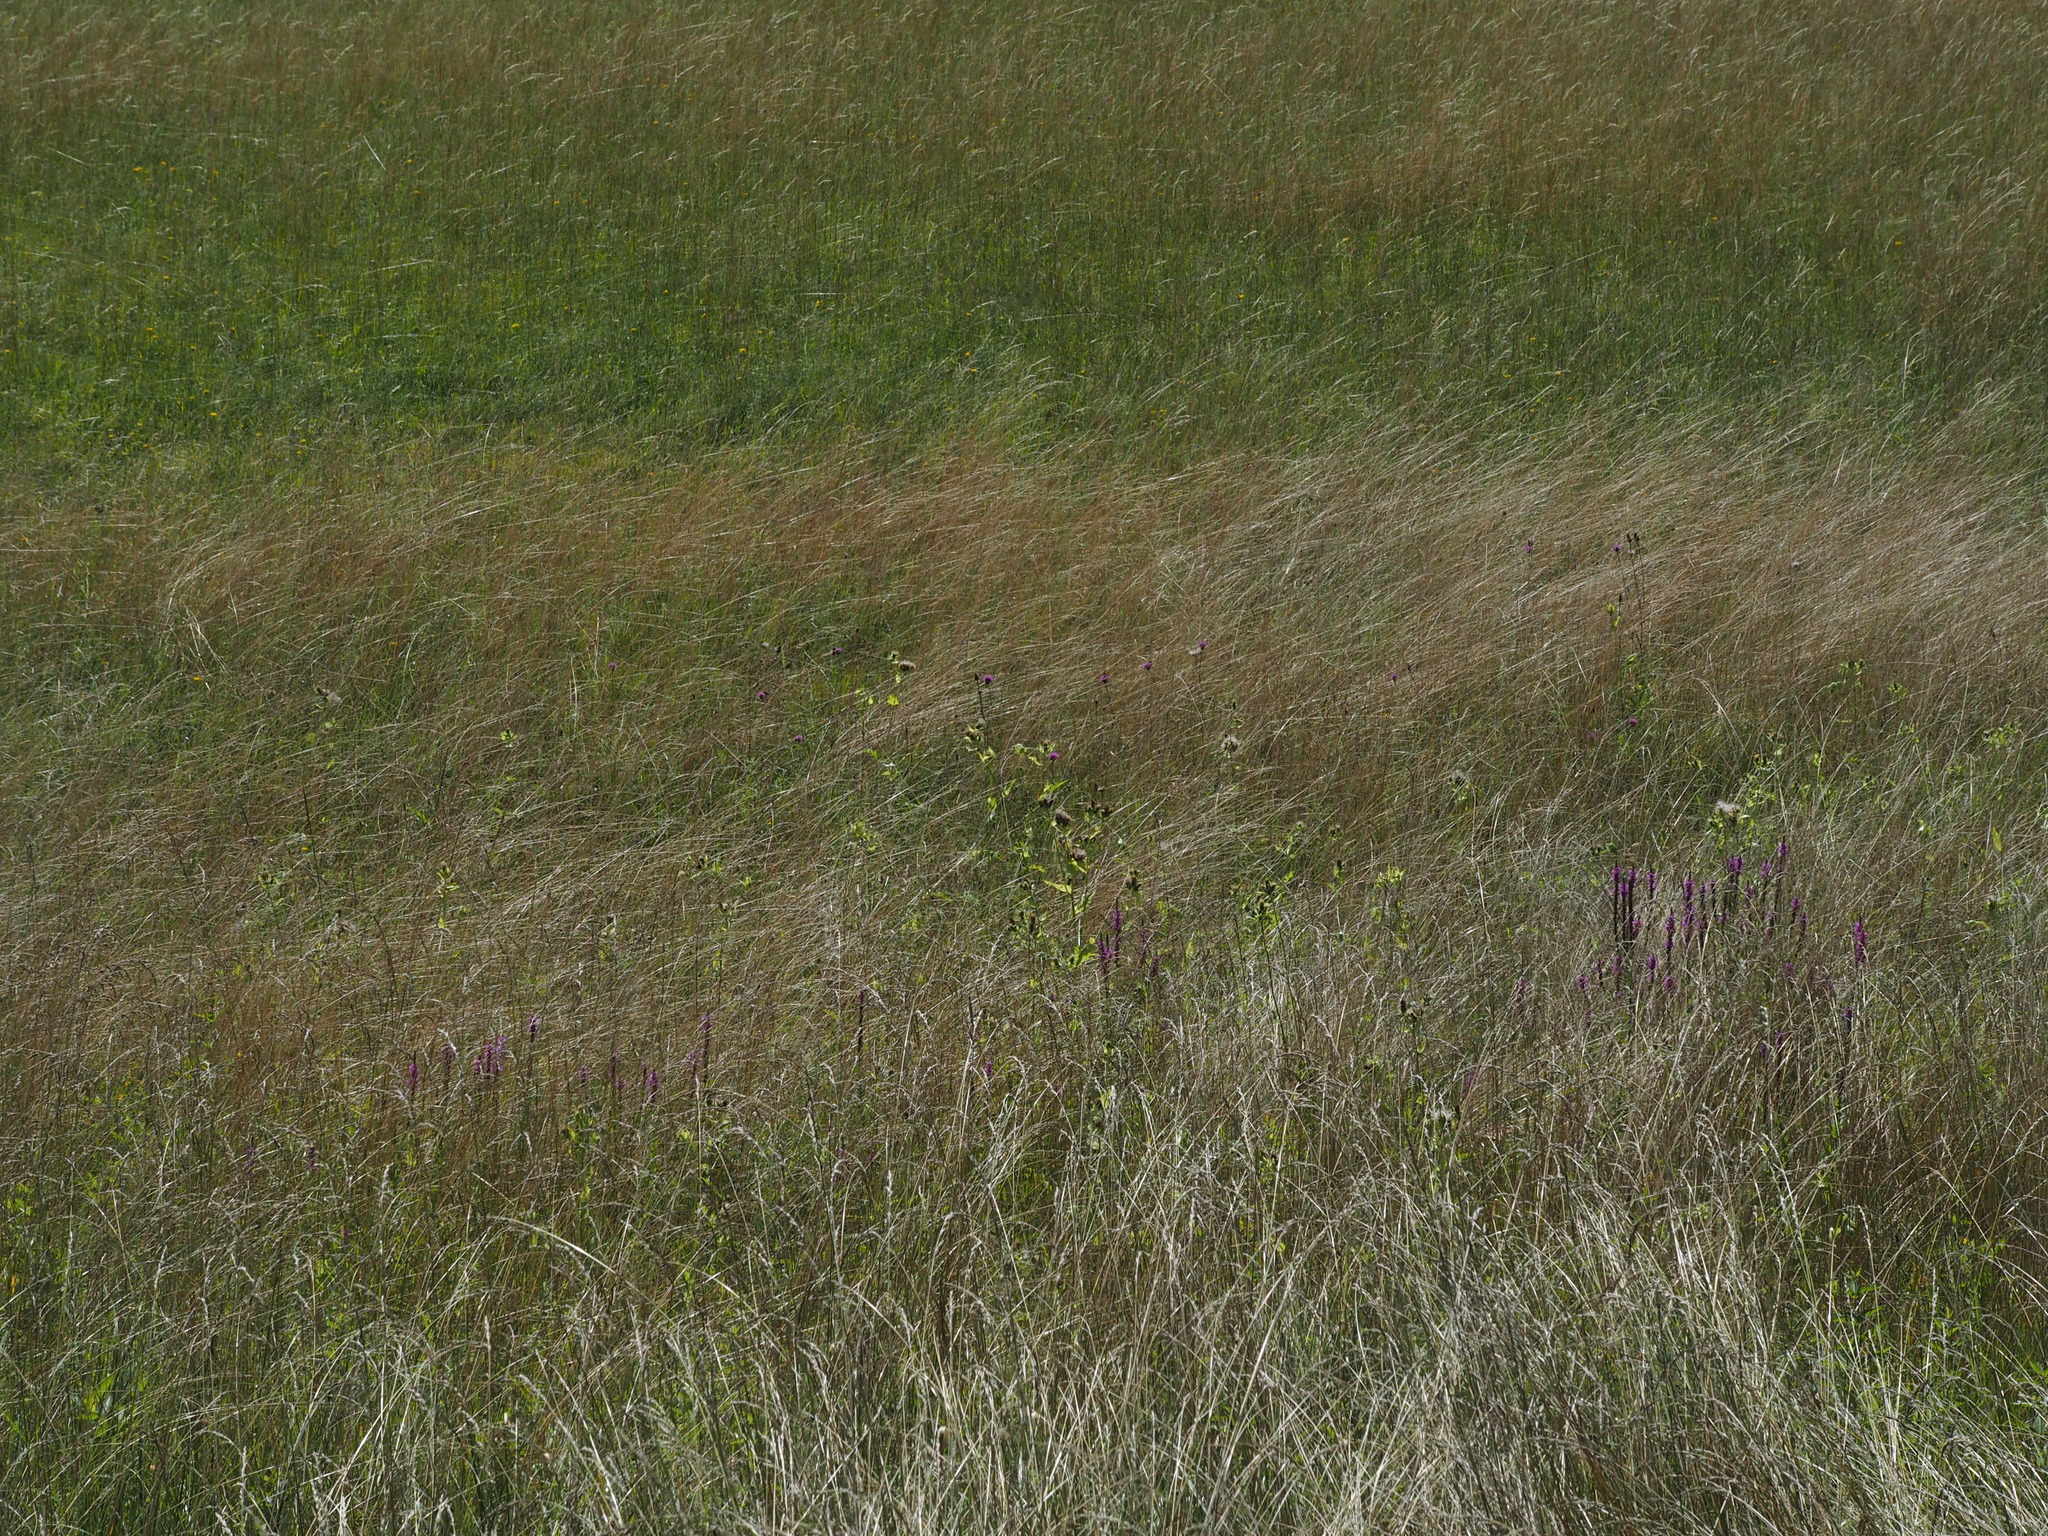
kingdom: Animalia
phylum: Arthropoda
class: Insecta
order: Coleoptera
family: Brentidae
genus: Nanophyes
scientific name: Nanophyes marmoratus
